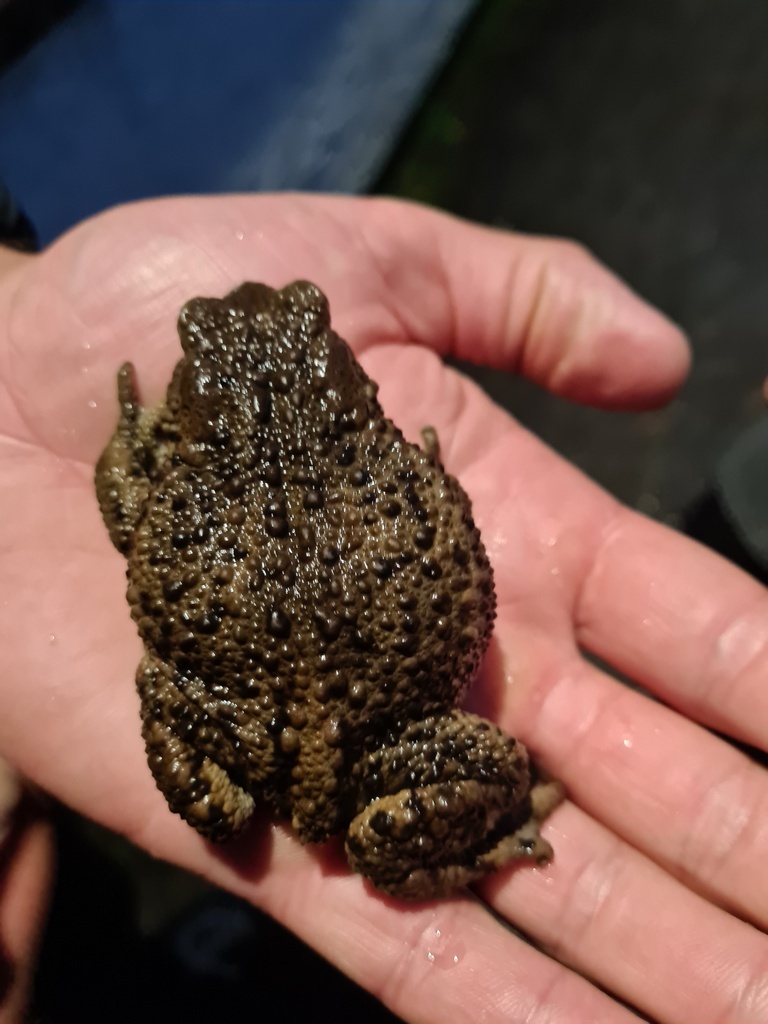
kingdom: Animalia
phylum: Chordata
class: Amphibia
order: Anura
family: Bufonidae
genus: Bufo
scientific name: Bufo bufo
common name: Common toad
